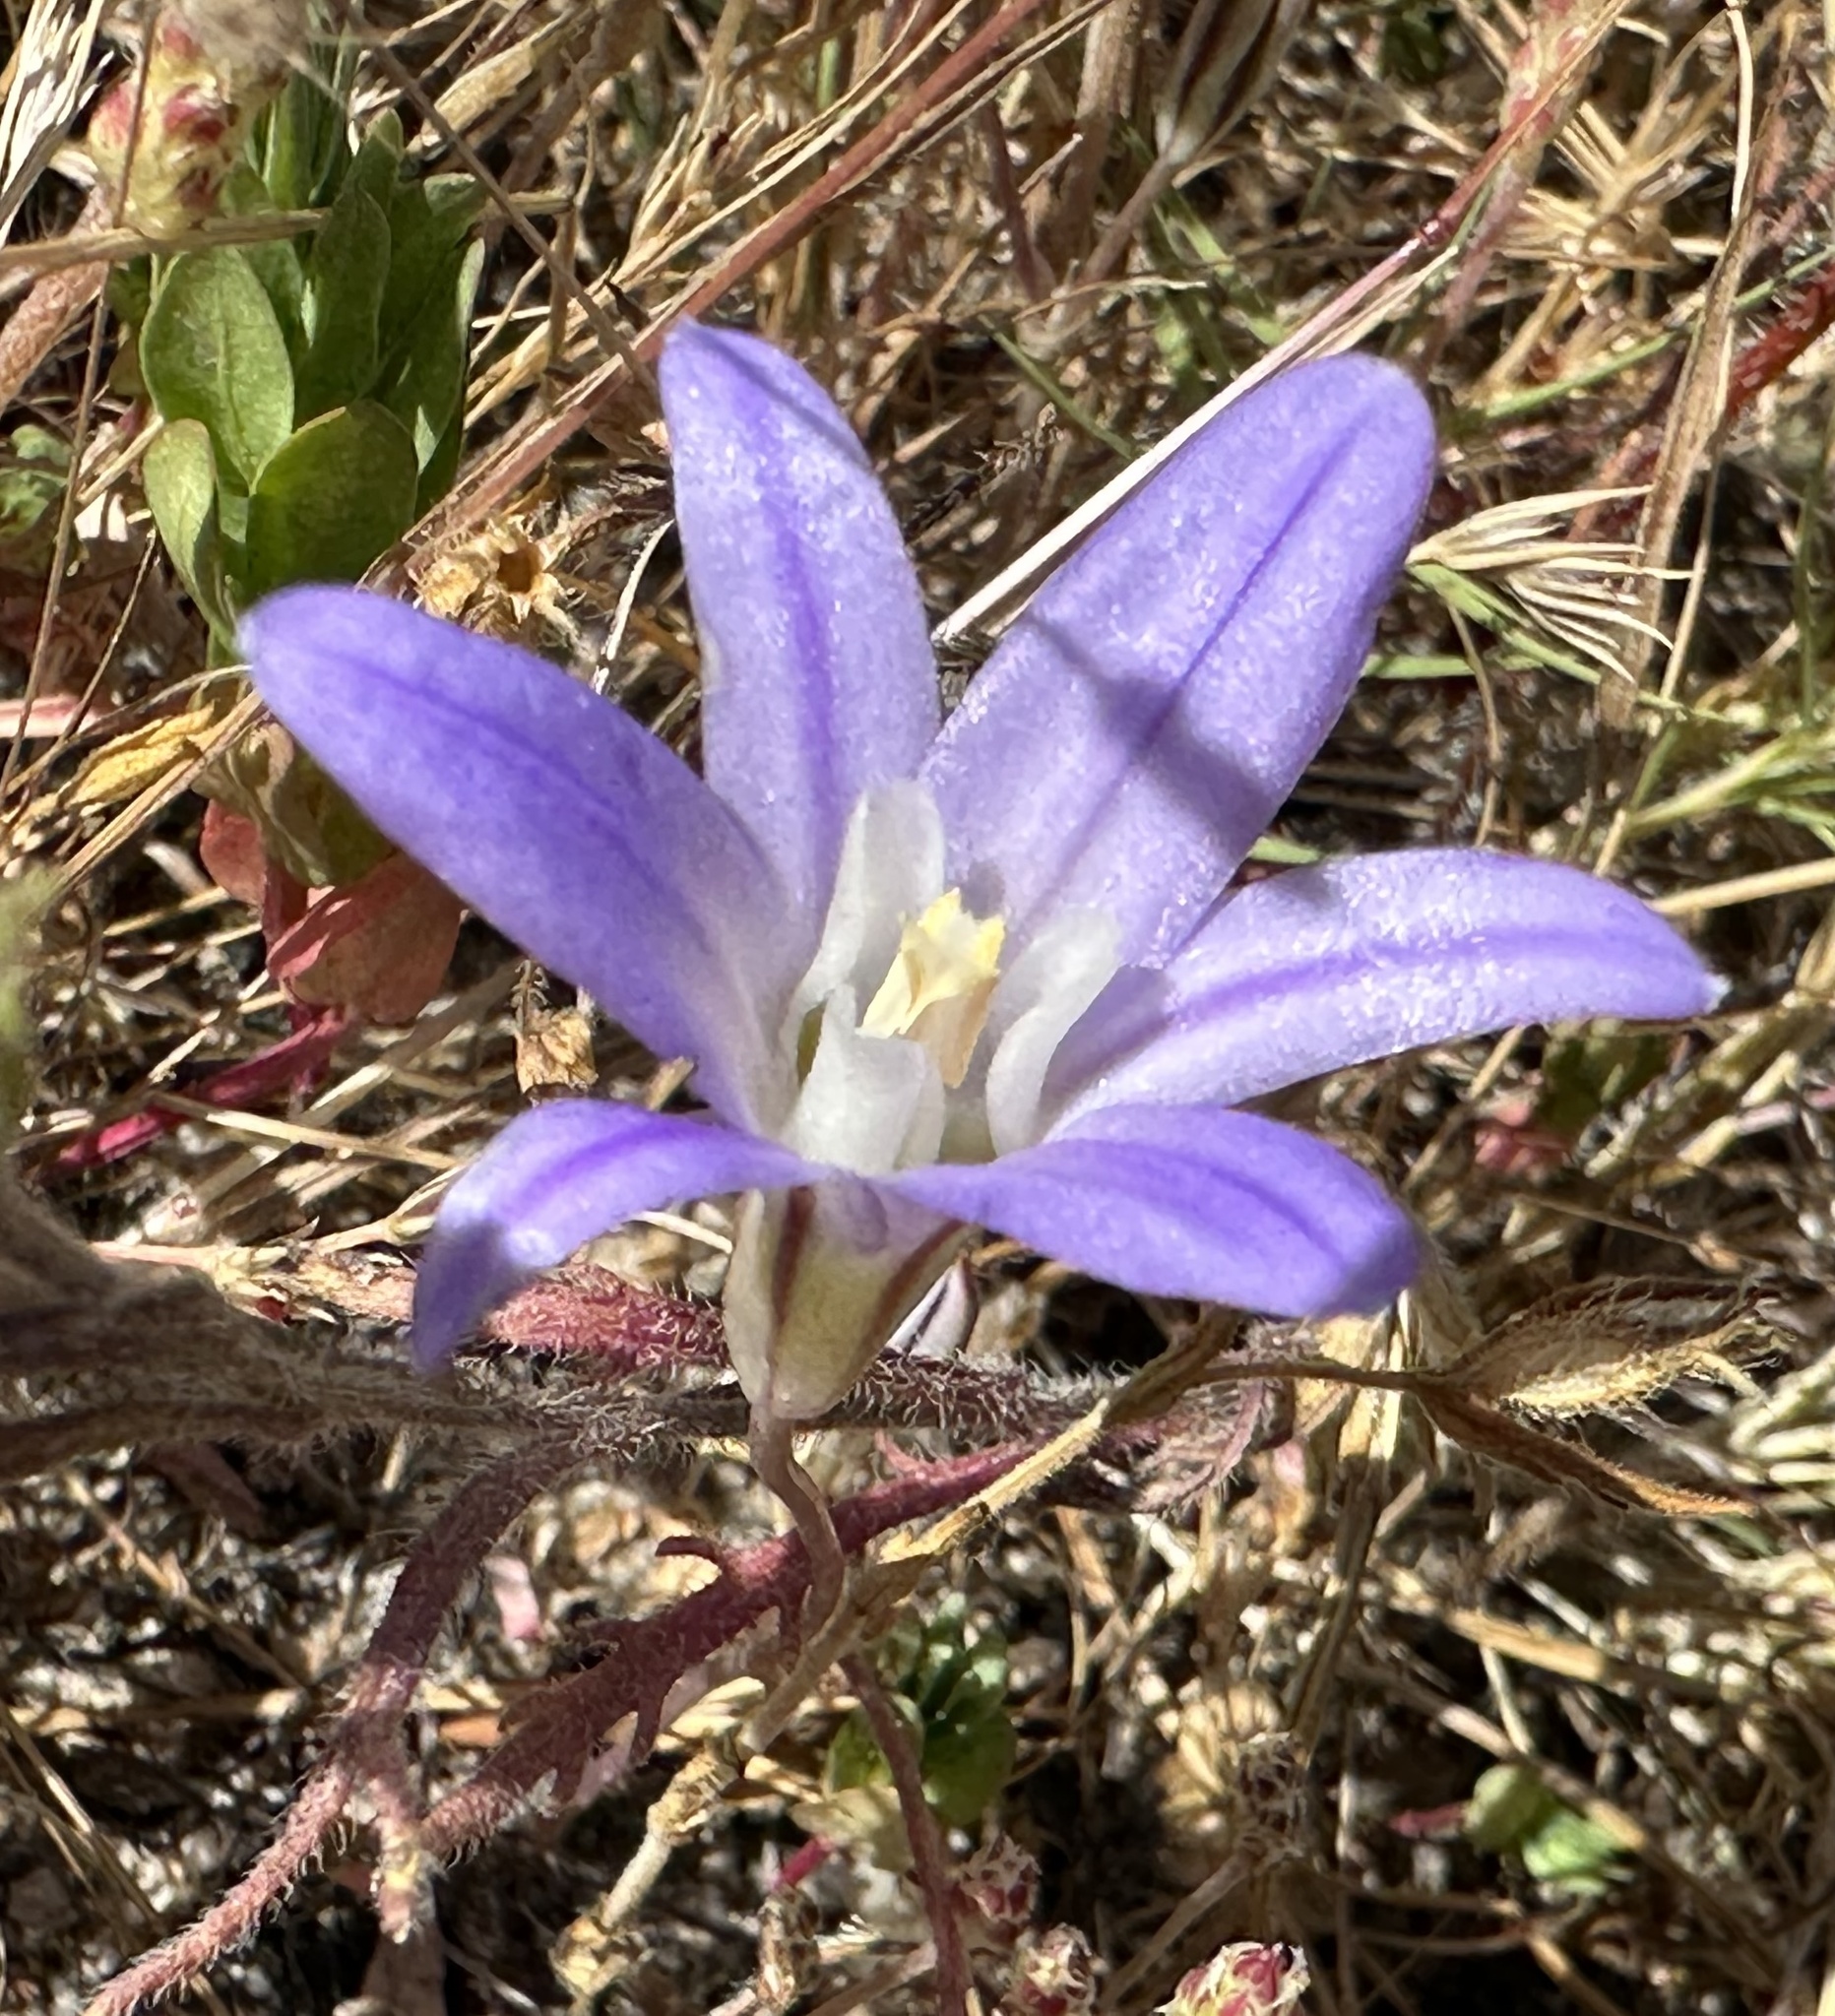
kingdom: Plantae
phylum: Tracheophyta
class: Liliopsida
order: Asparagales
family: Asparagaceae
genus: Brodiaea
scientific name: Brodiaea terrestris
